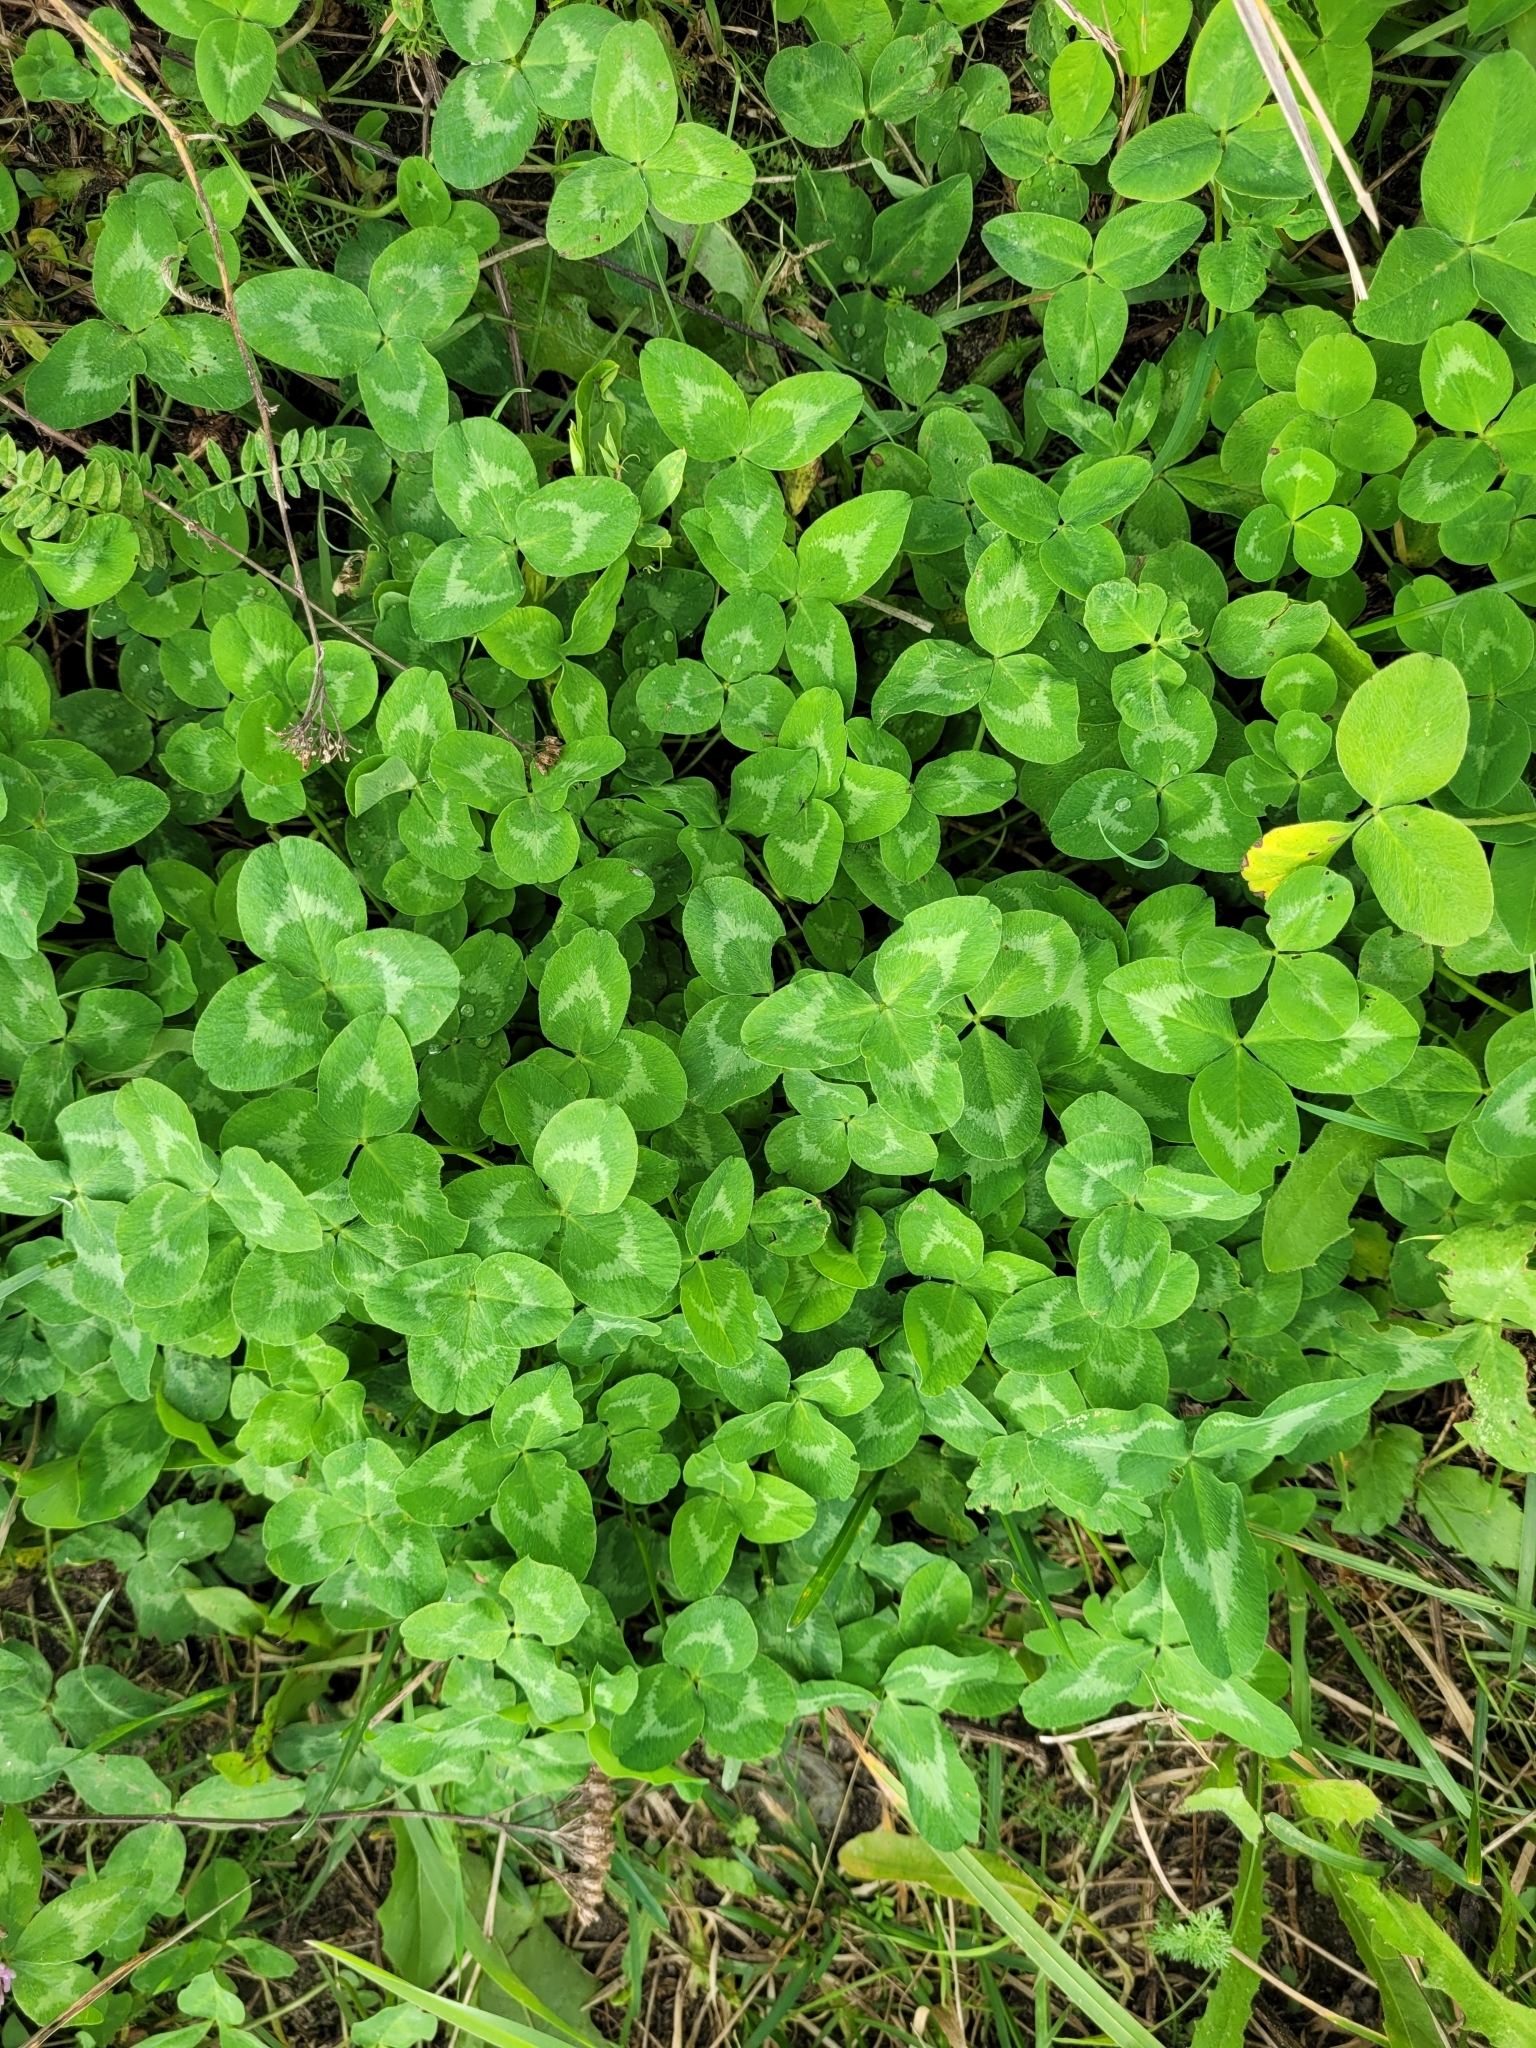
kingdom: Plantae
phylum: Tracheophyta
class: Magnoliopsida
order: Fabales
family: Fabaceae
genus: Trifolium
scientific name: Trifolium pratense
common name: Red clover
